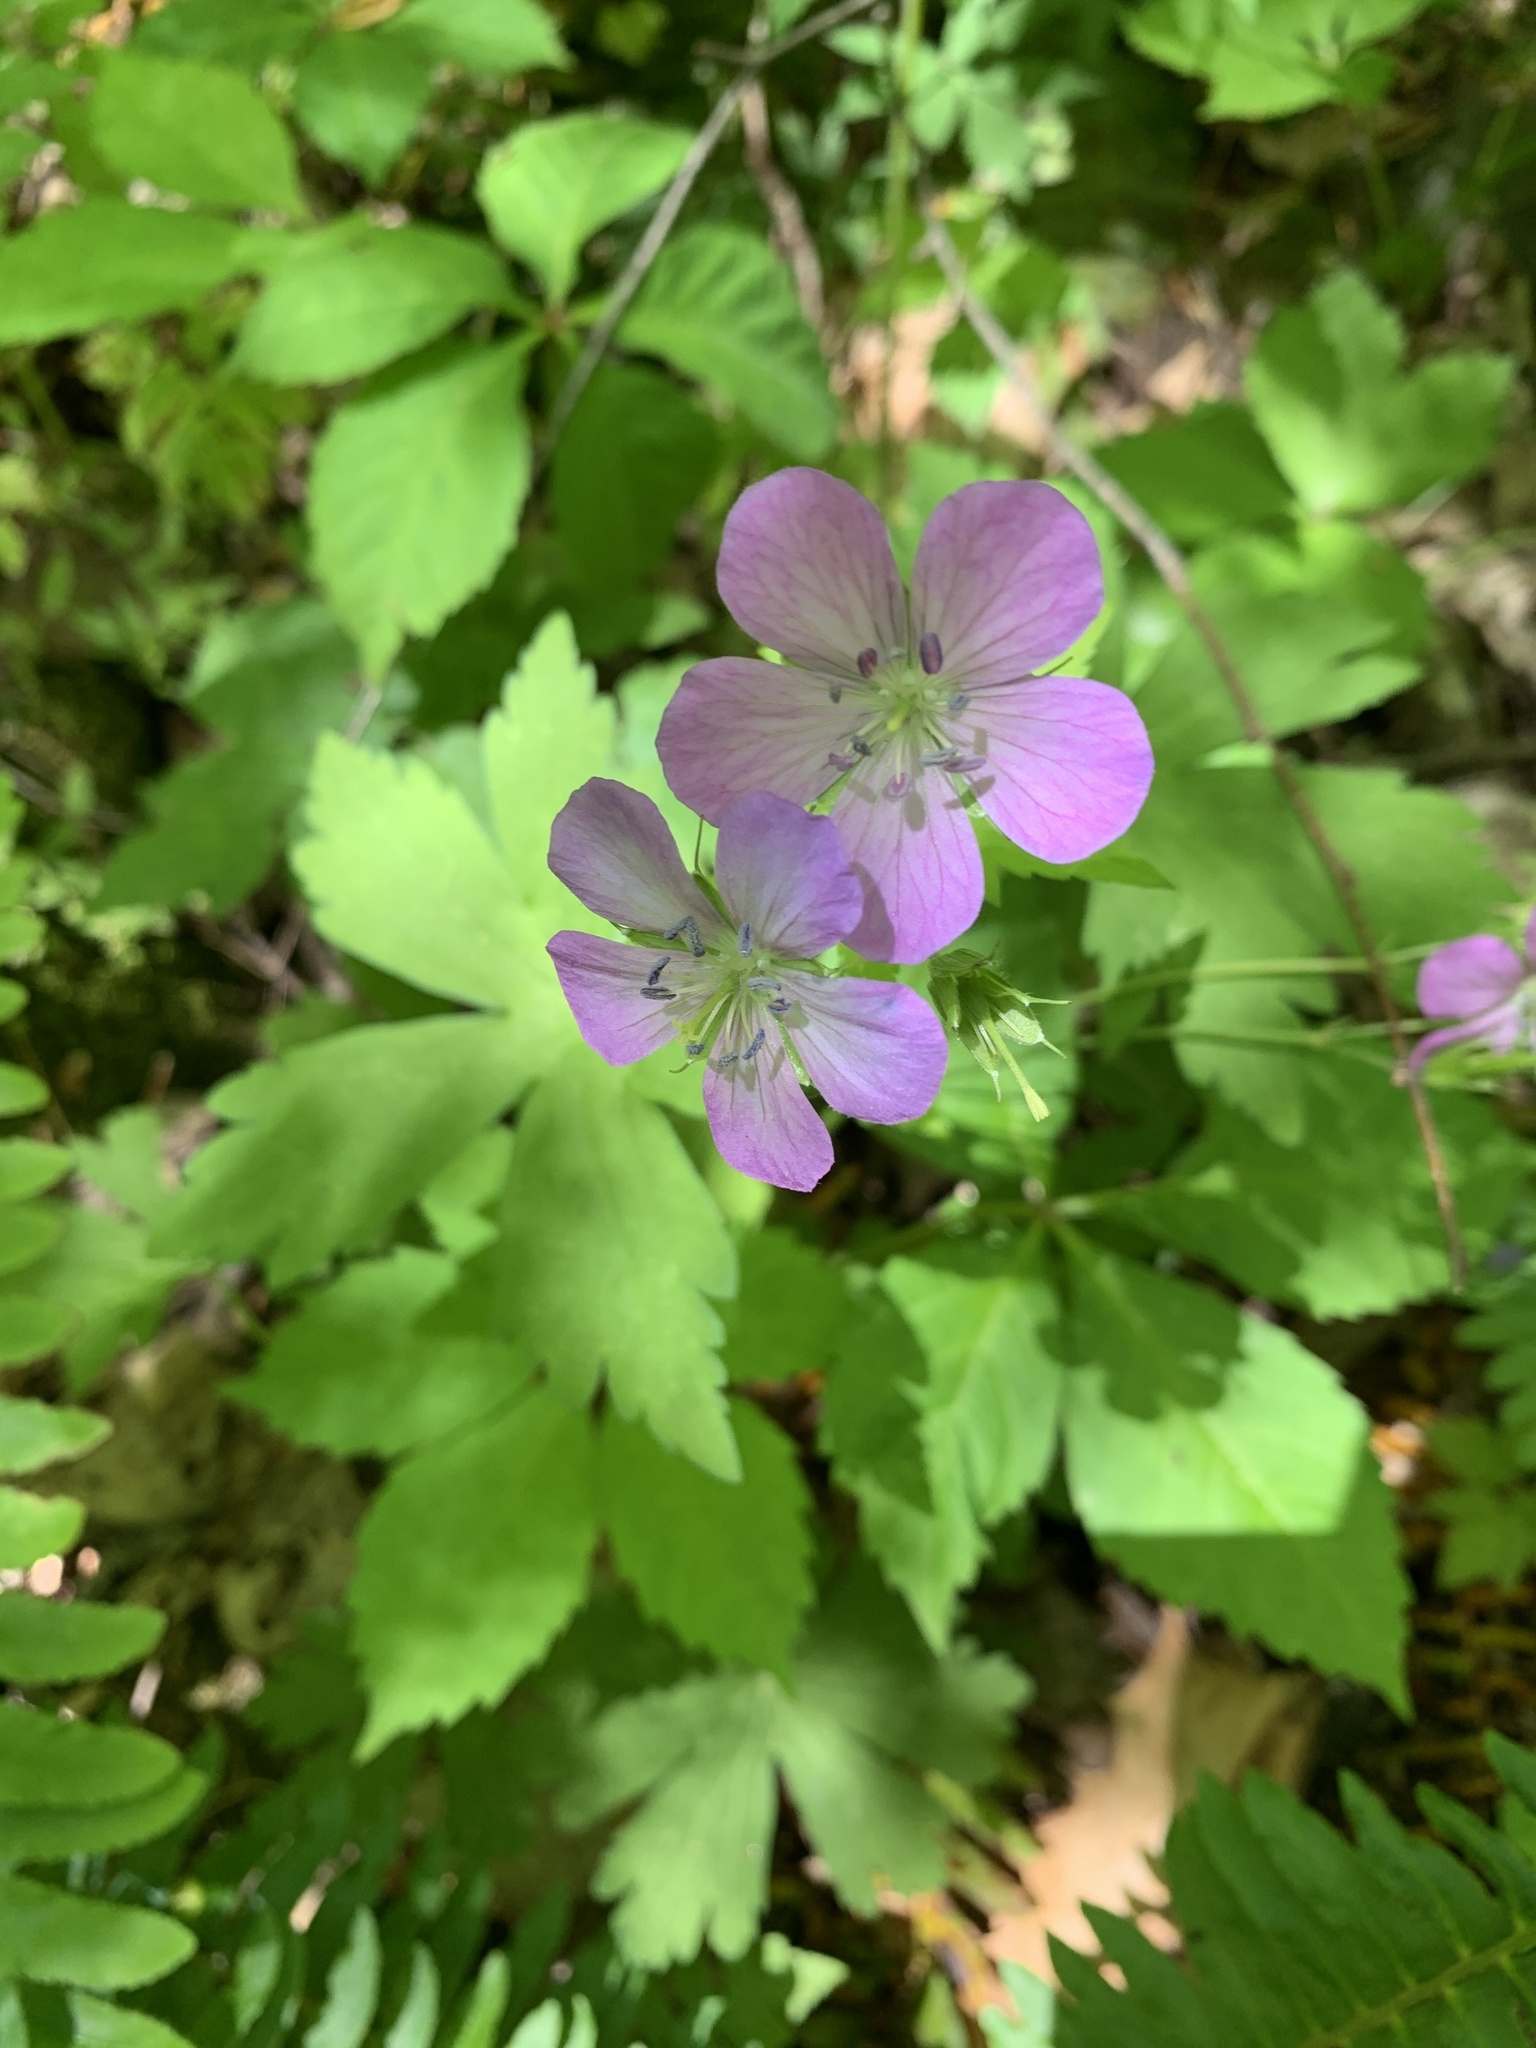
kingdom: Plantae
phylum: Tracheophyta
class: Magnoliopsida
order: Geraniales
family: Geraniaceae
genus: Geranium
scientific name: Geranium maculatum
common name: Spotted geranium
